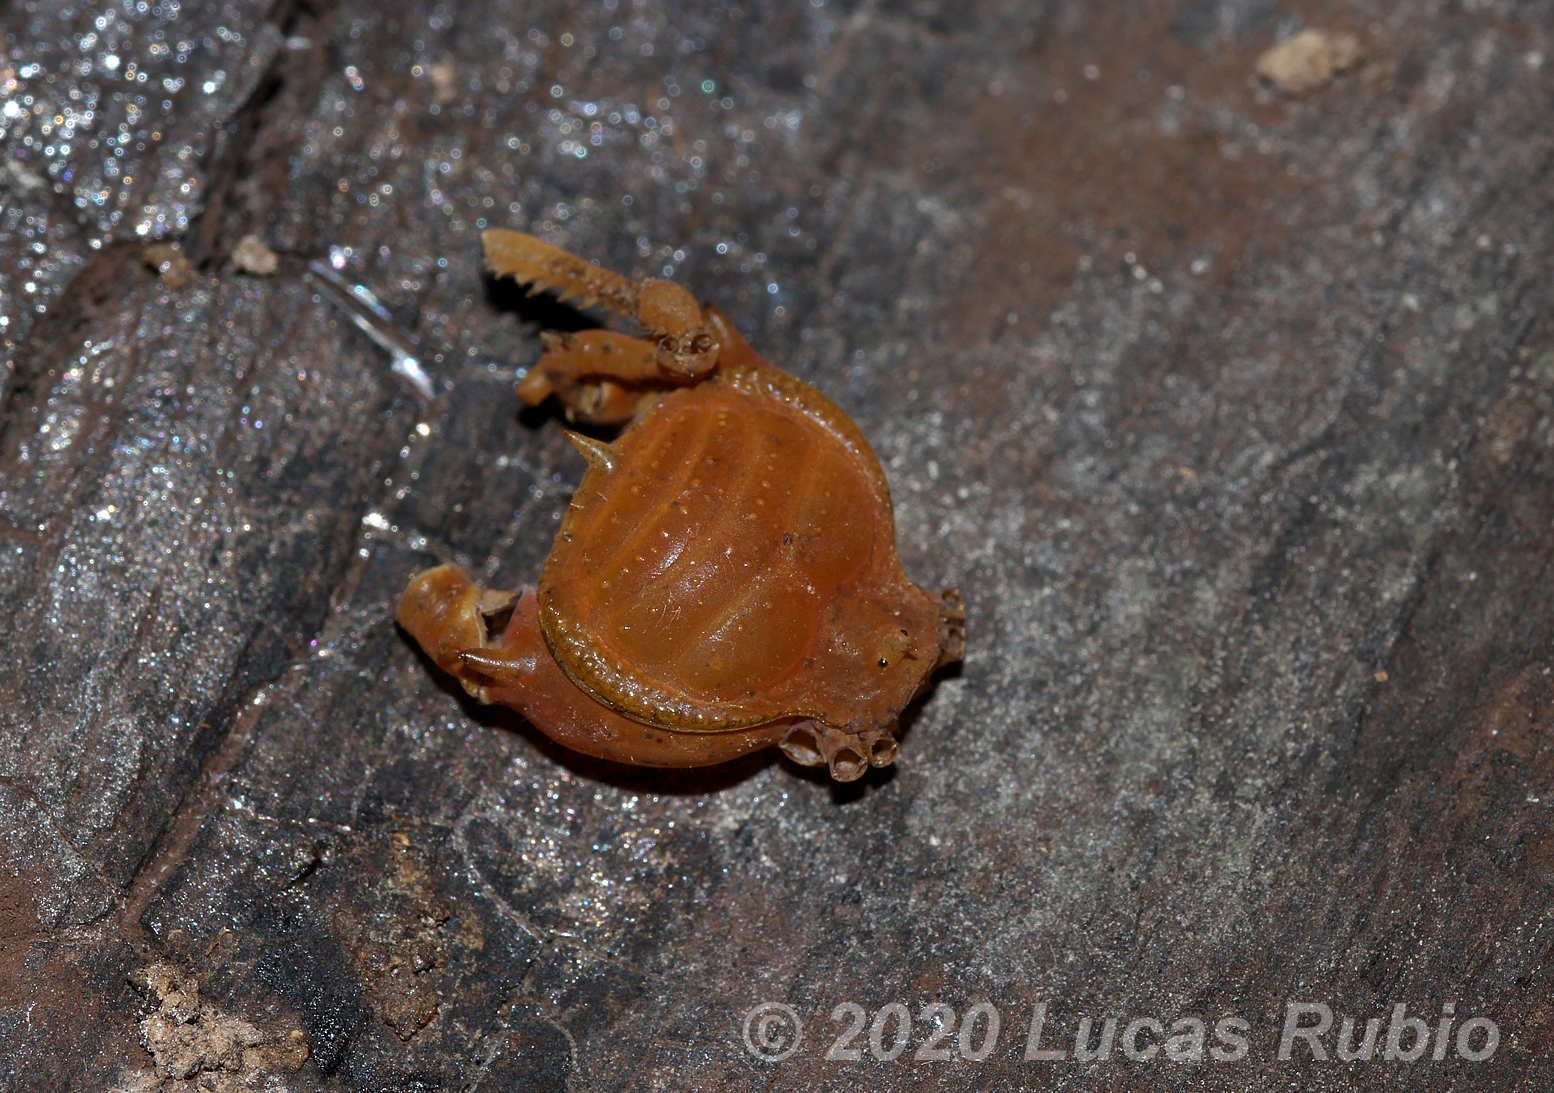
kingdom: Animalia
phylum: Arthropoda
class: Arachnida
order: Opiliones
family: Gonyleptidae
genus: Acanthopachylus
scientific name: Acanthopachylus robustus
